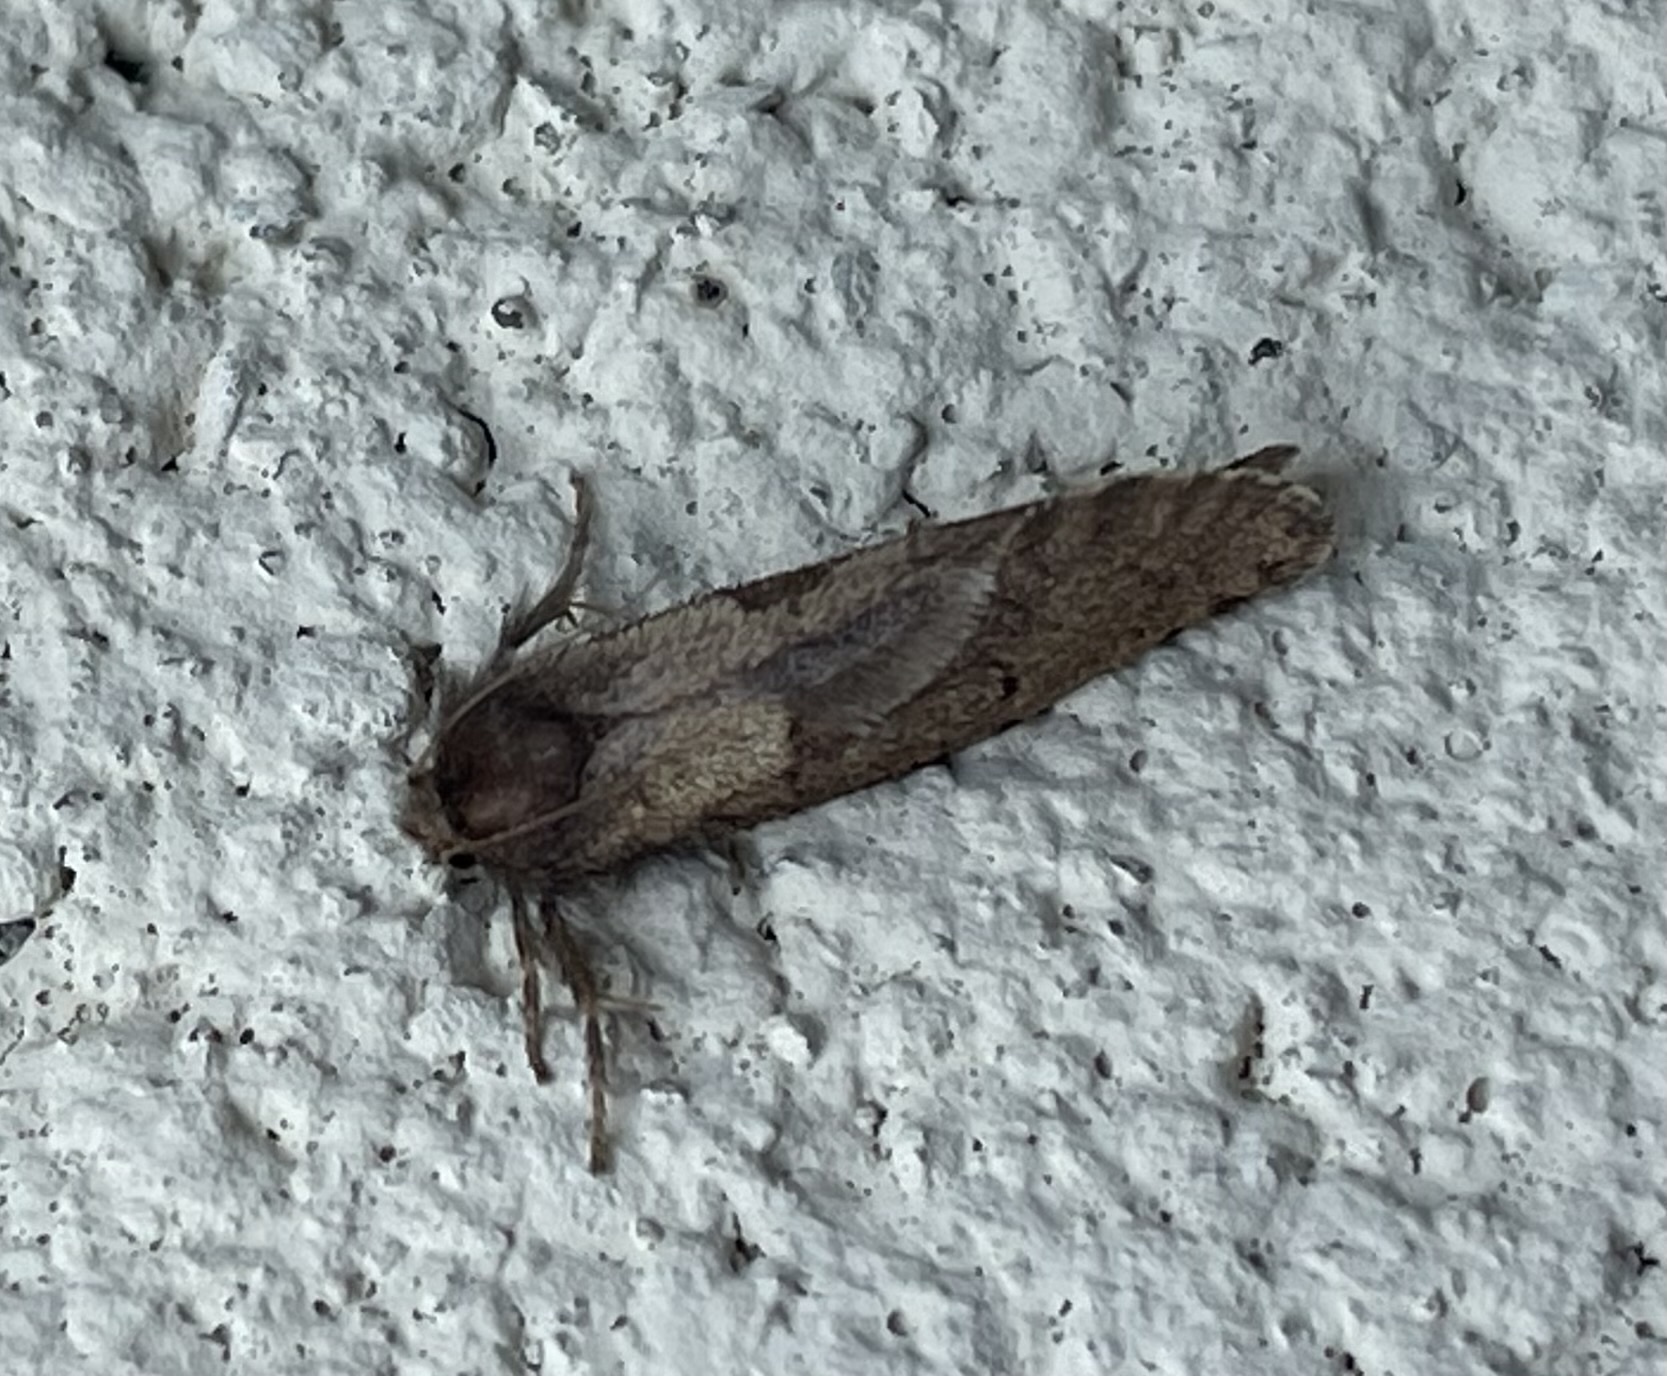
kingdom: Animalia
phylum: Arthropoda
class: Insecta
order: Lepidoptera
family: Tineidae
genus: Acrolophus
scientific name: Acrolophus mora
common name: Dark acrolophus
